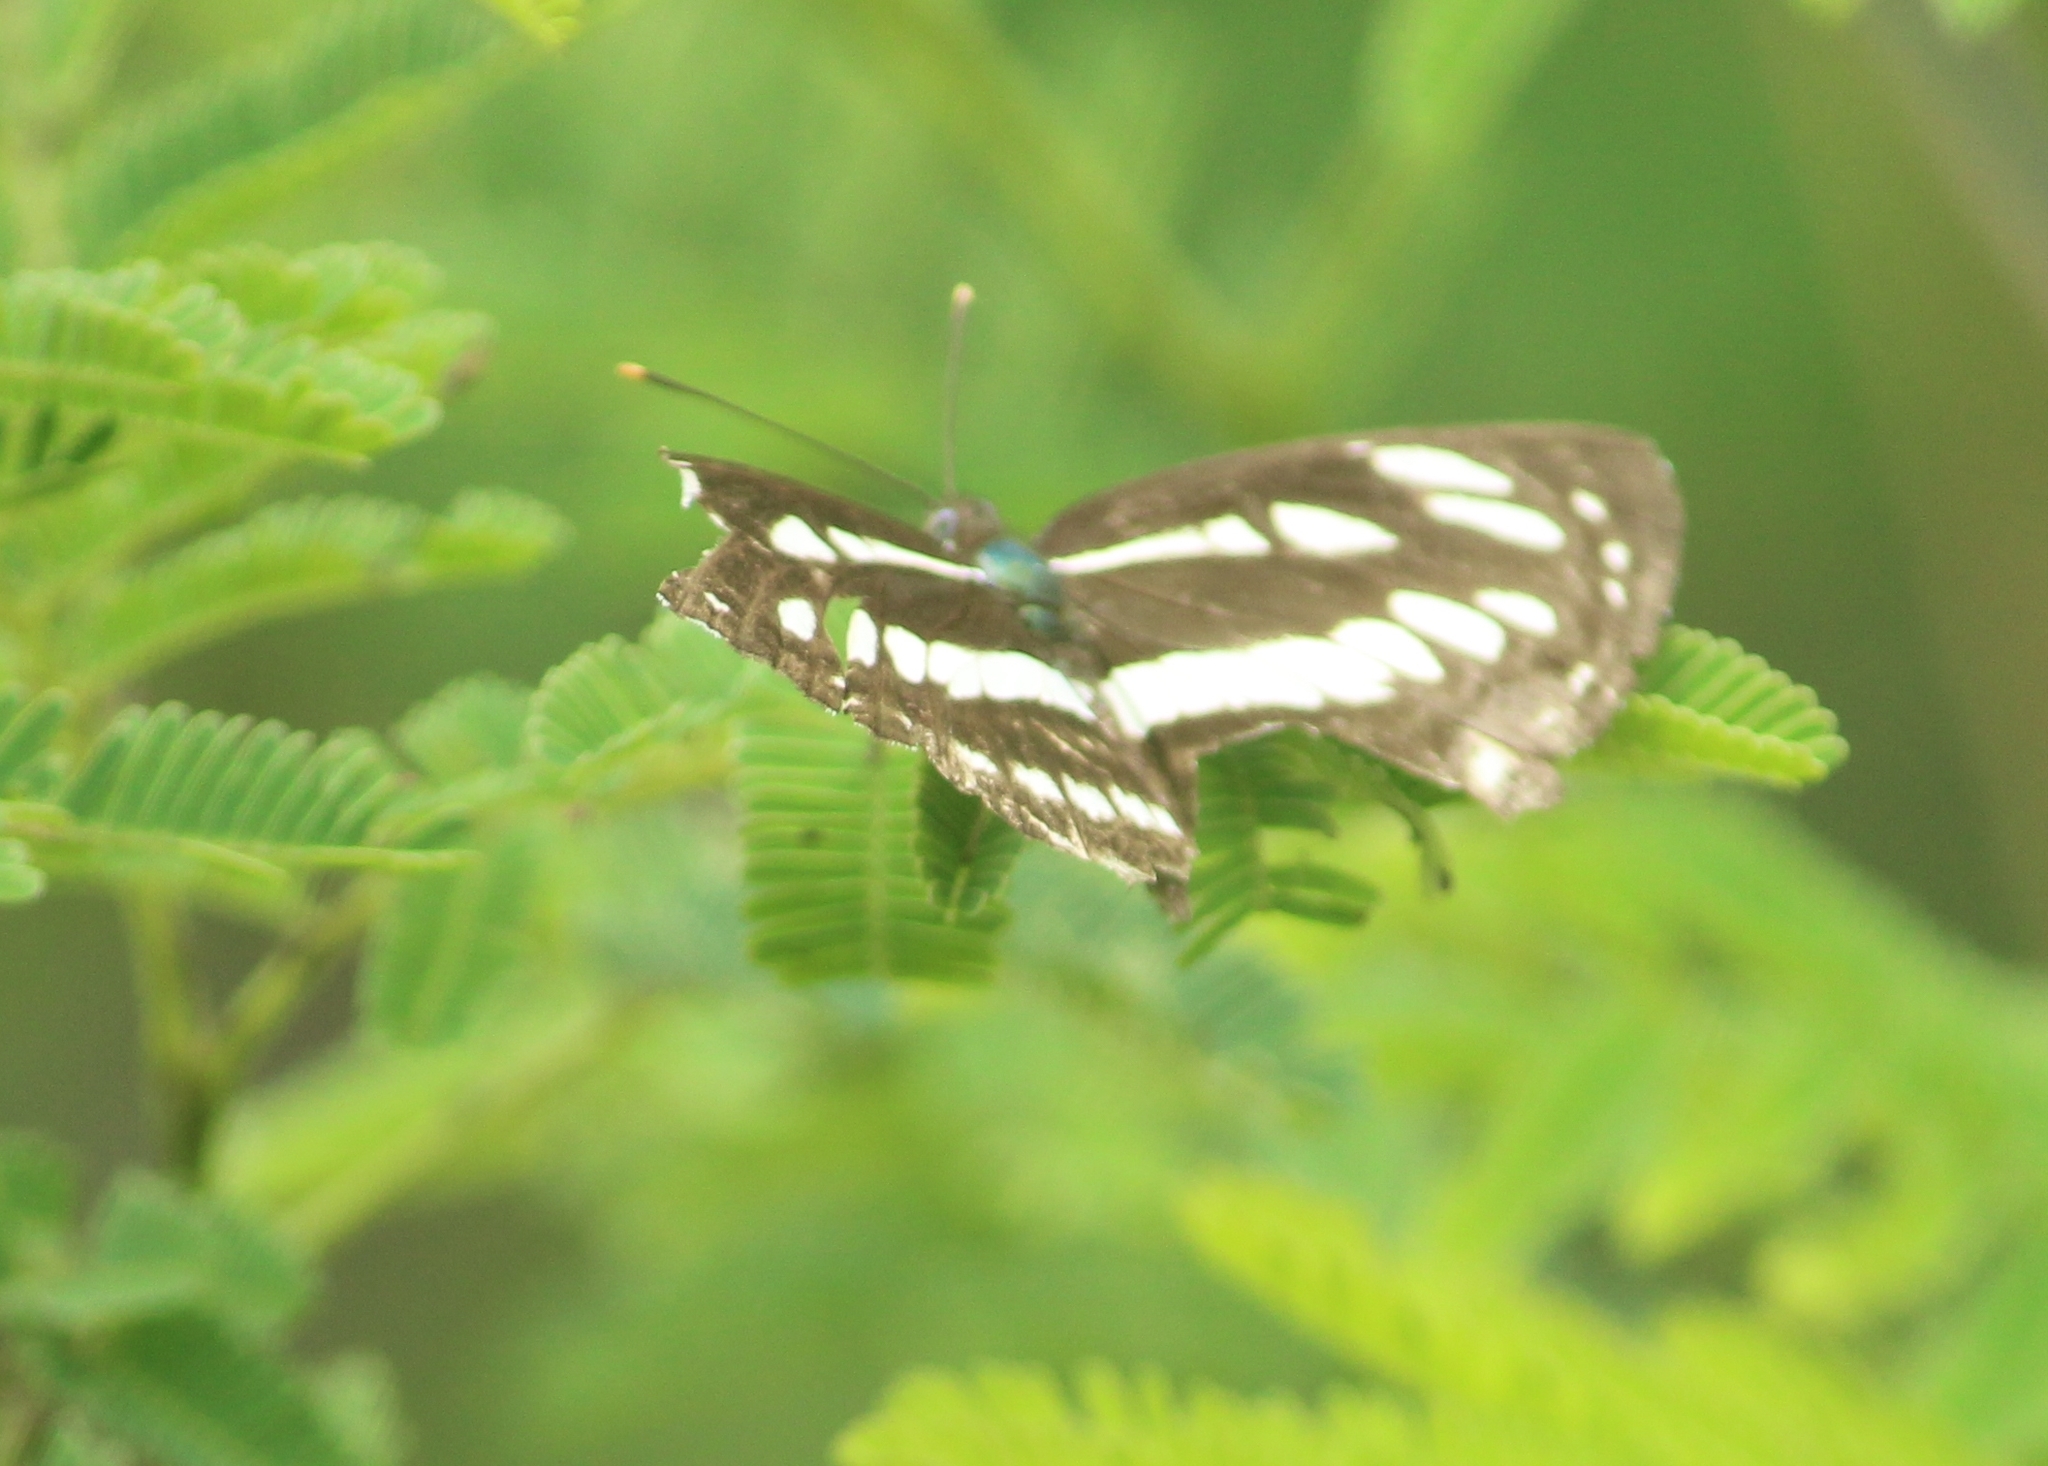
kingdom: Animalia
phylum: Arthropoda
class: Insecta
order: Lepidoptera
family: Nymphalidae
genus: Neptis
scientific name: Neptis hylas
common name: Common sailer
